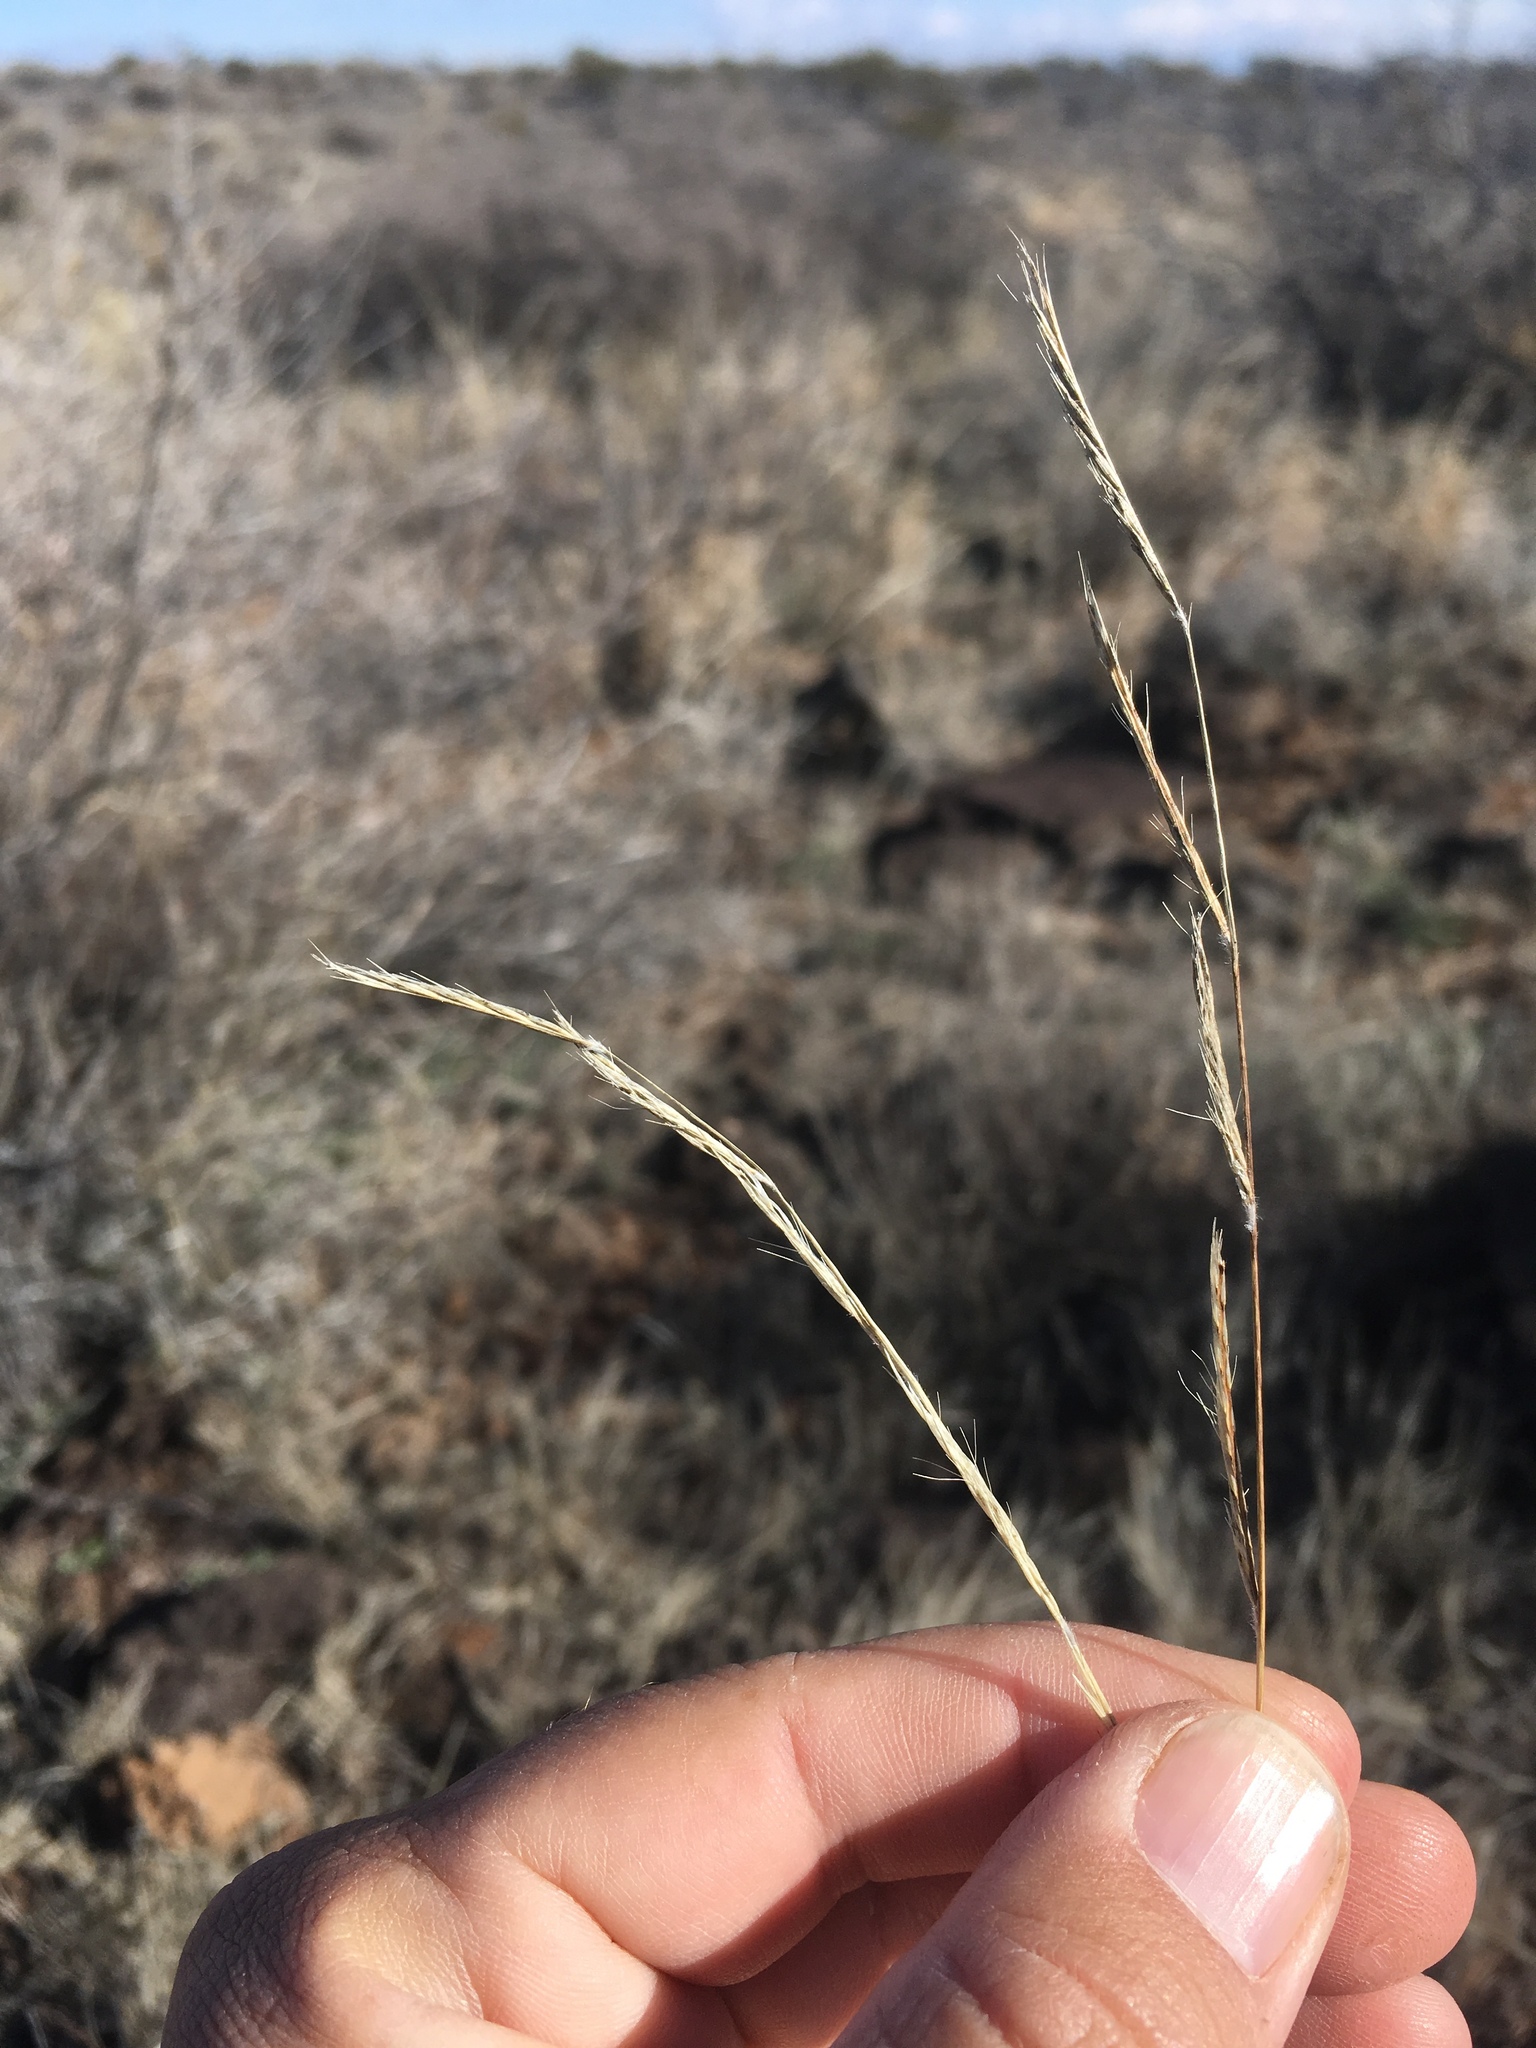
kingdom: Plantae
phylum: Tracheophyta
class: Liliopsida
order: Poales
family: Poaceae
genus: Bouteloua
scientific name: Bouteloua eriopoda
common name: Woolly foot grama
